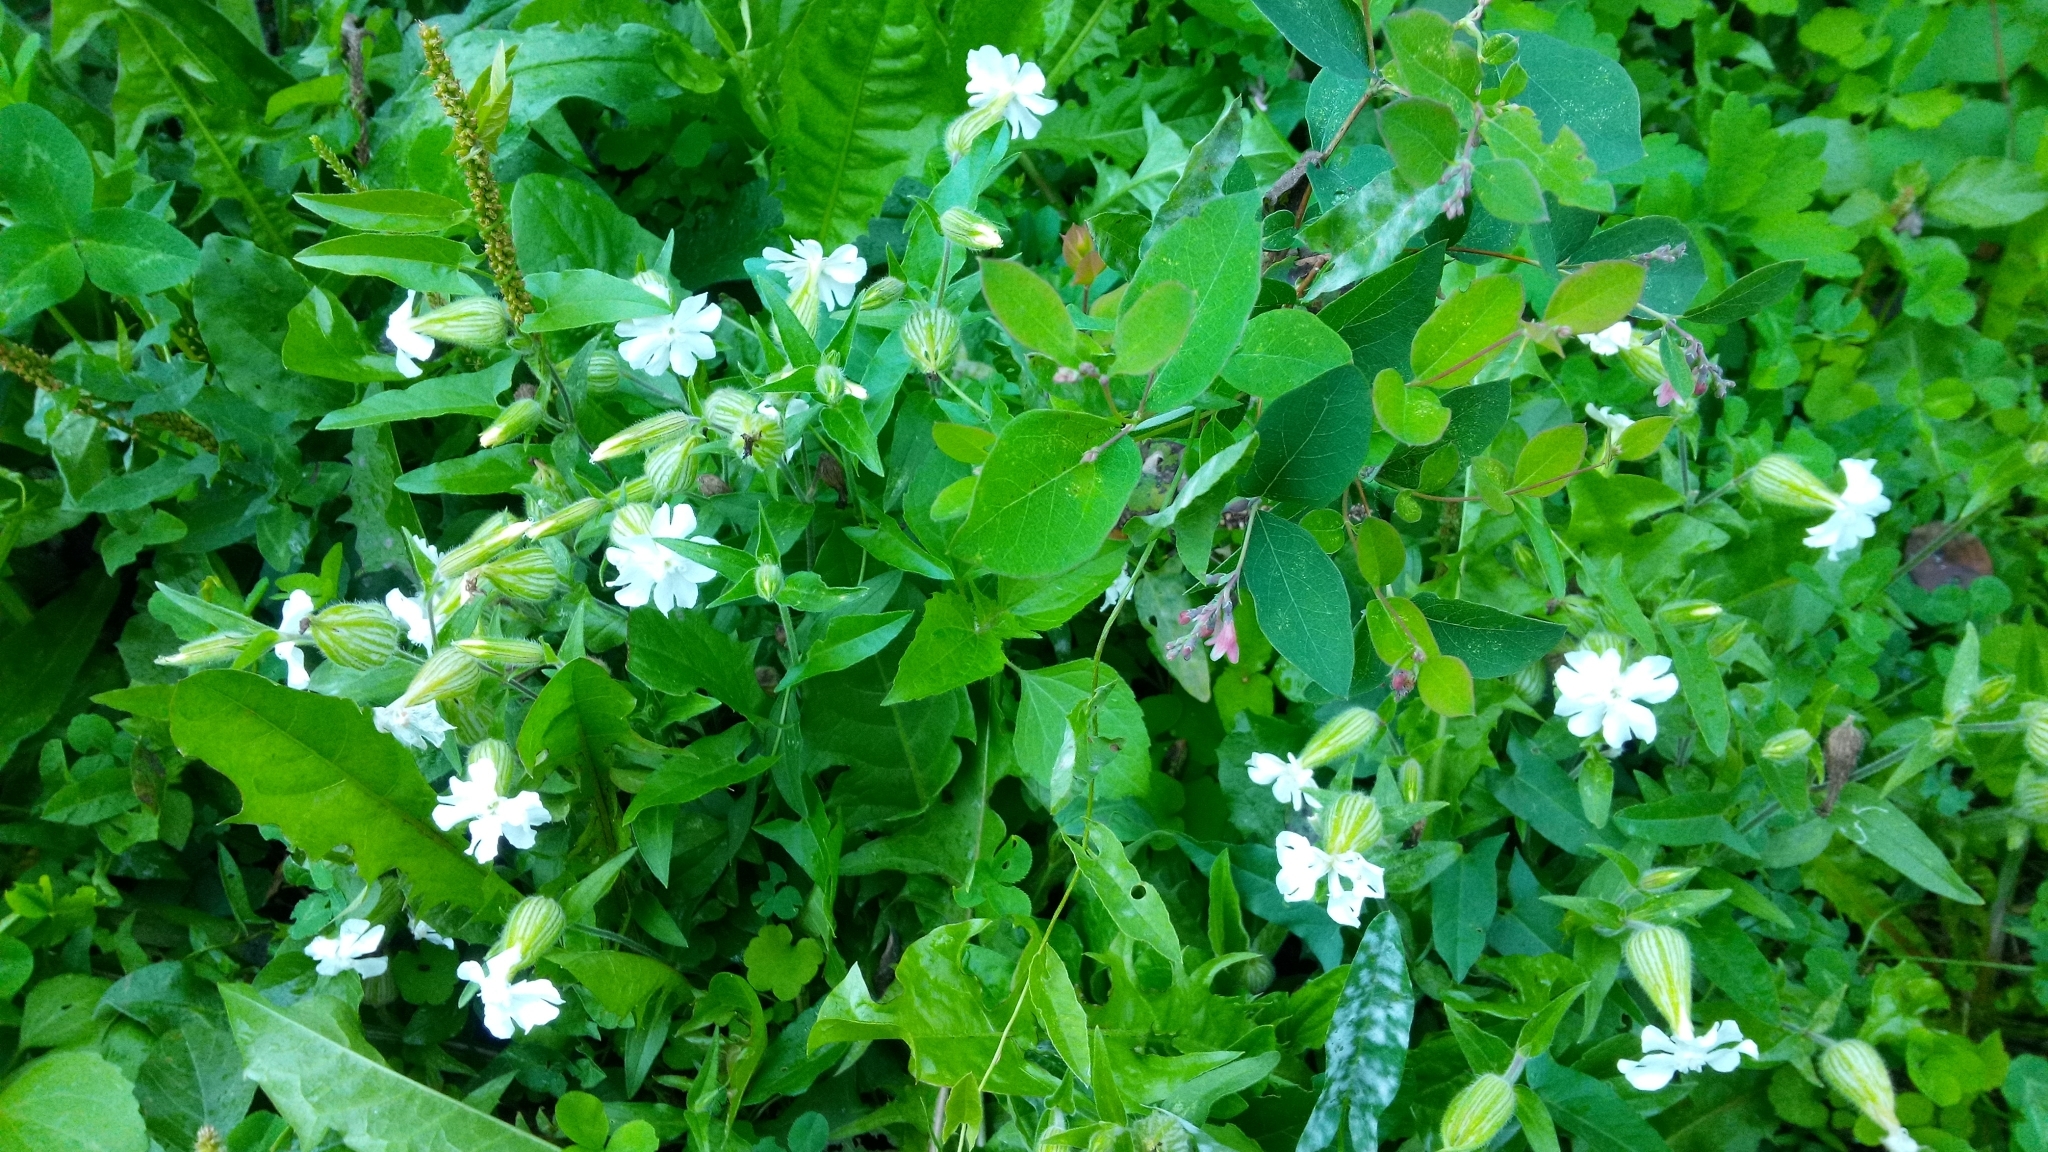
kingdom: Plantae
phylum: Tracheophyta
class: Magnoliopsida
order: Caryophyllales
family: Caryophyllaceae
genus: Silene
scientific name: Silene latifolia
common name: White campion
